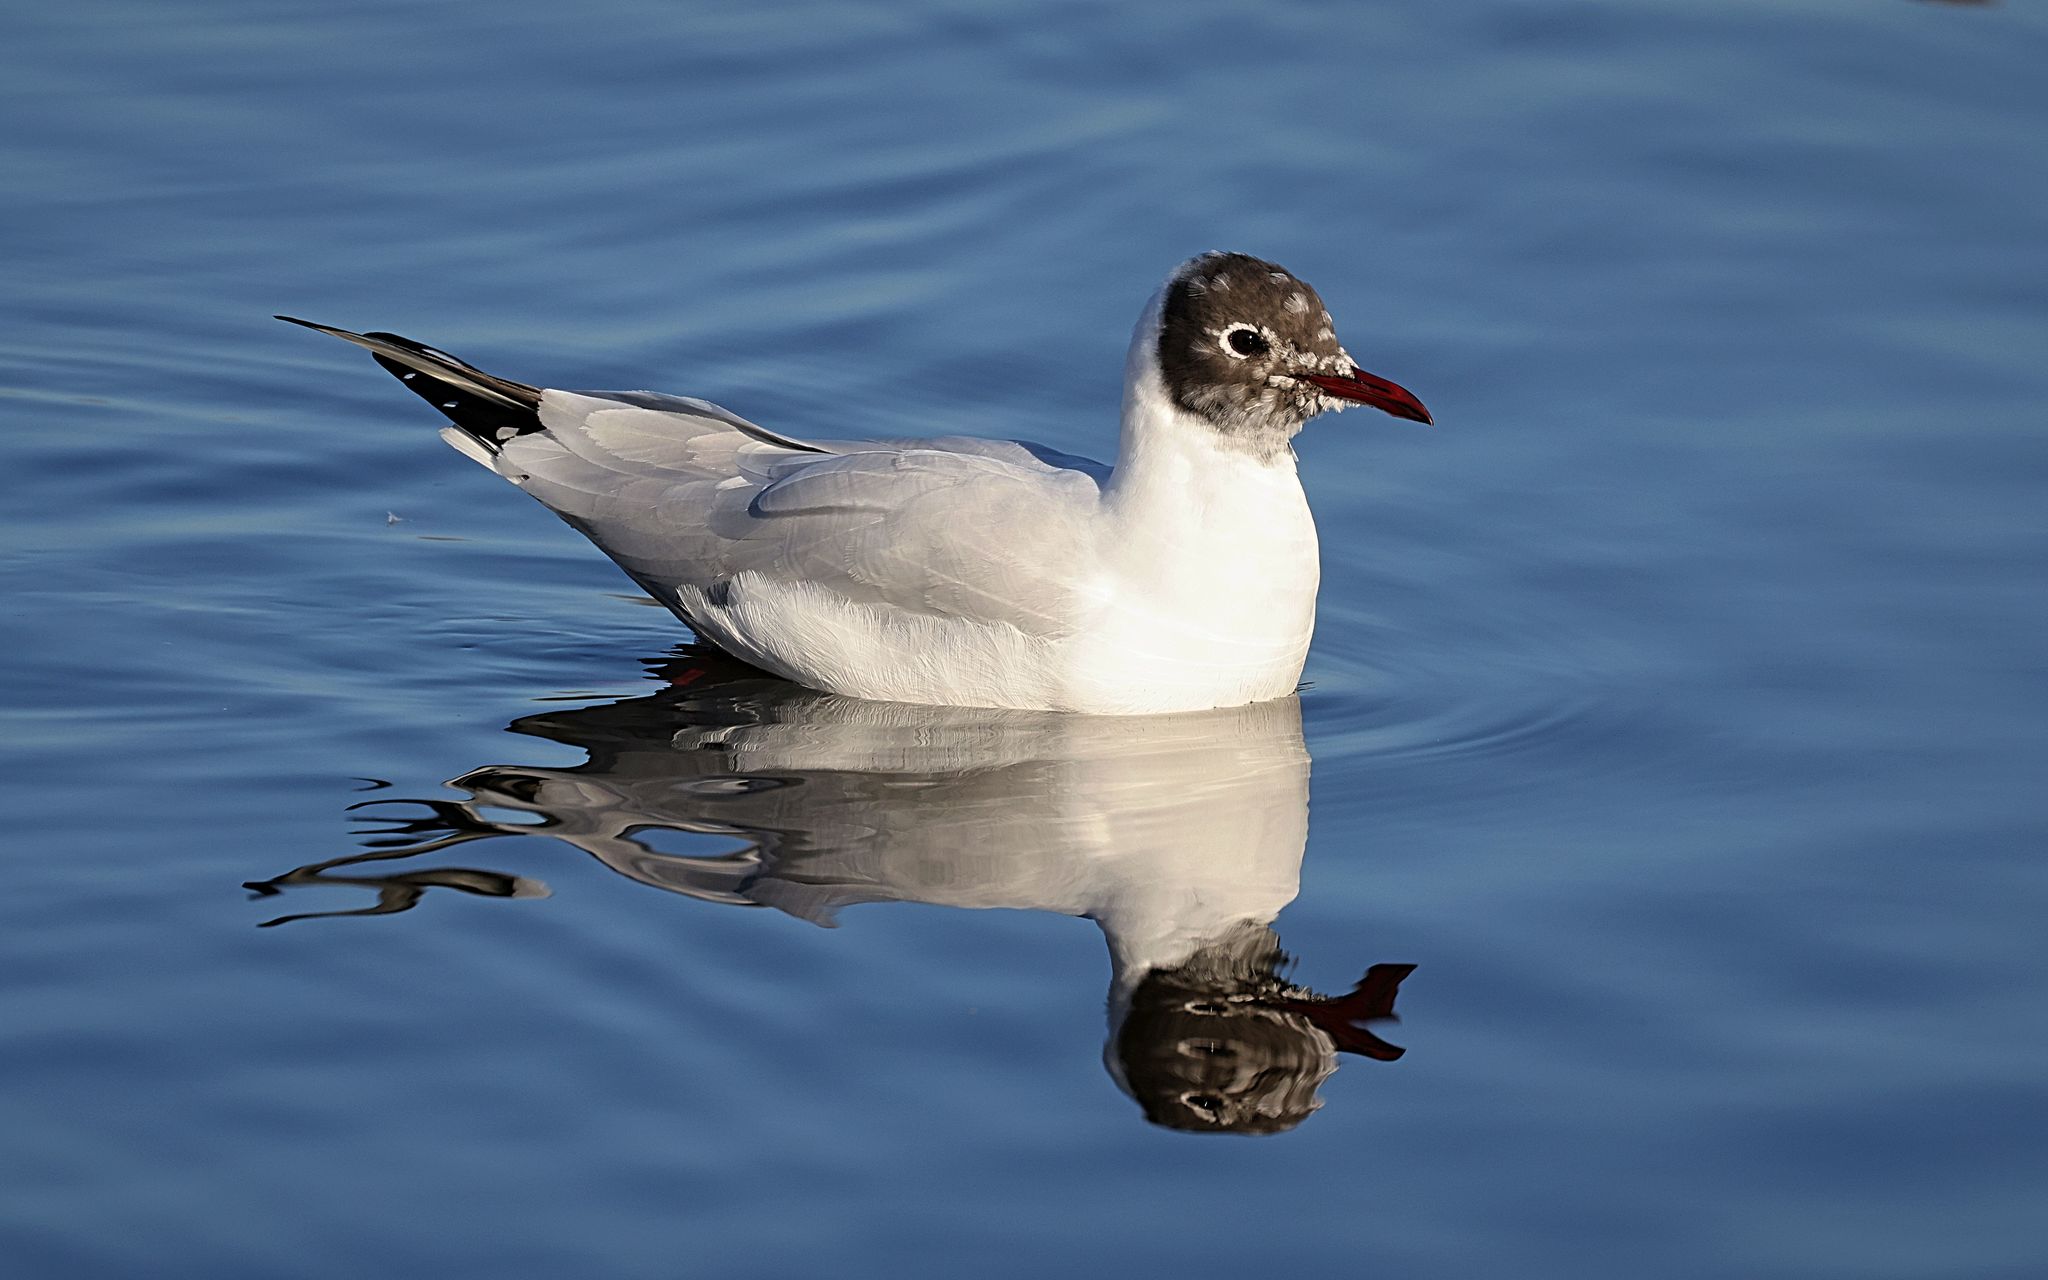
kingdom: Animalia
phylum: Chordata
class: Aves
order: Charadriiformes
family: Laridae
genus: Chroicocephalus
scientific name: Chroicocephalus ridibundus
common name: Black-headed gull
